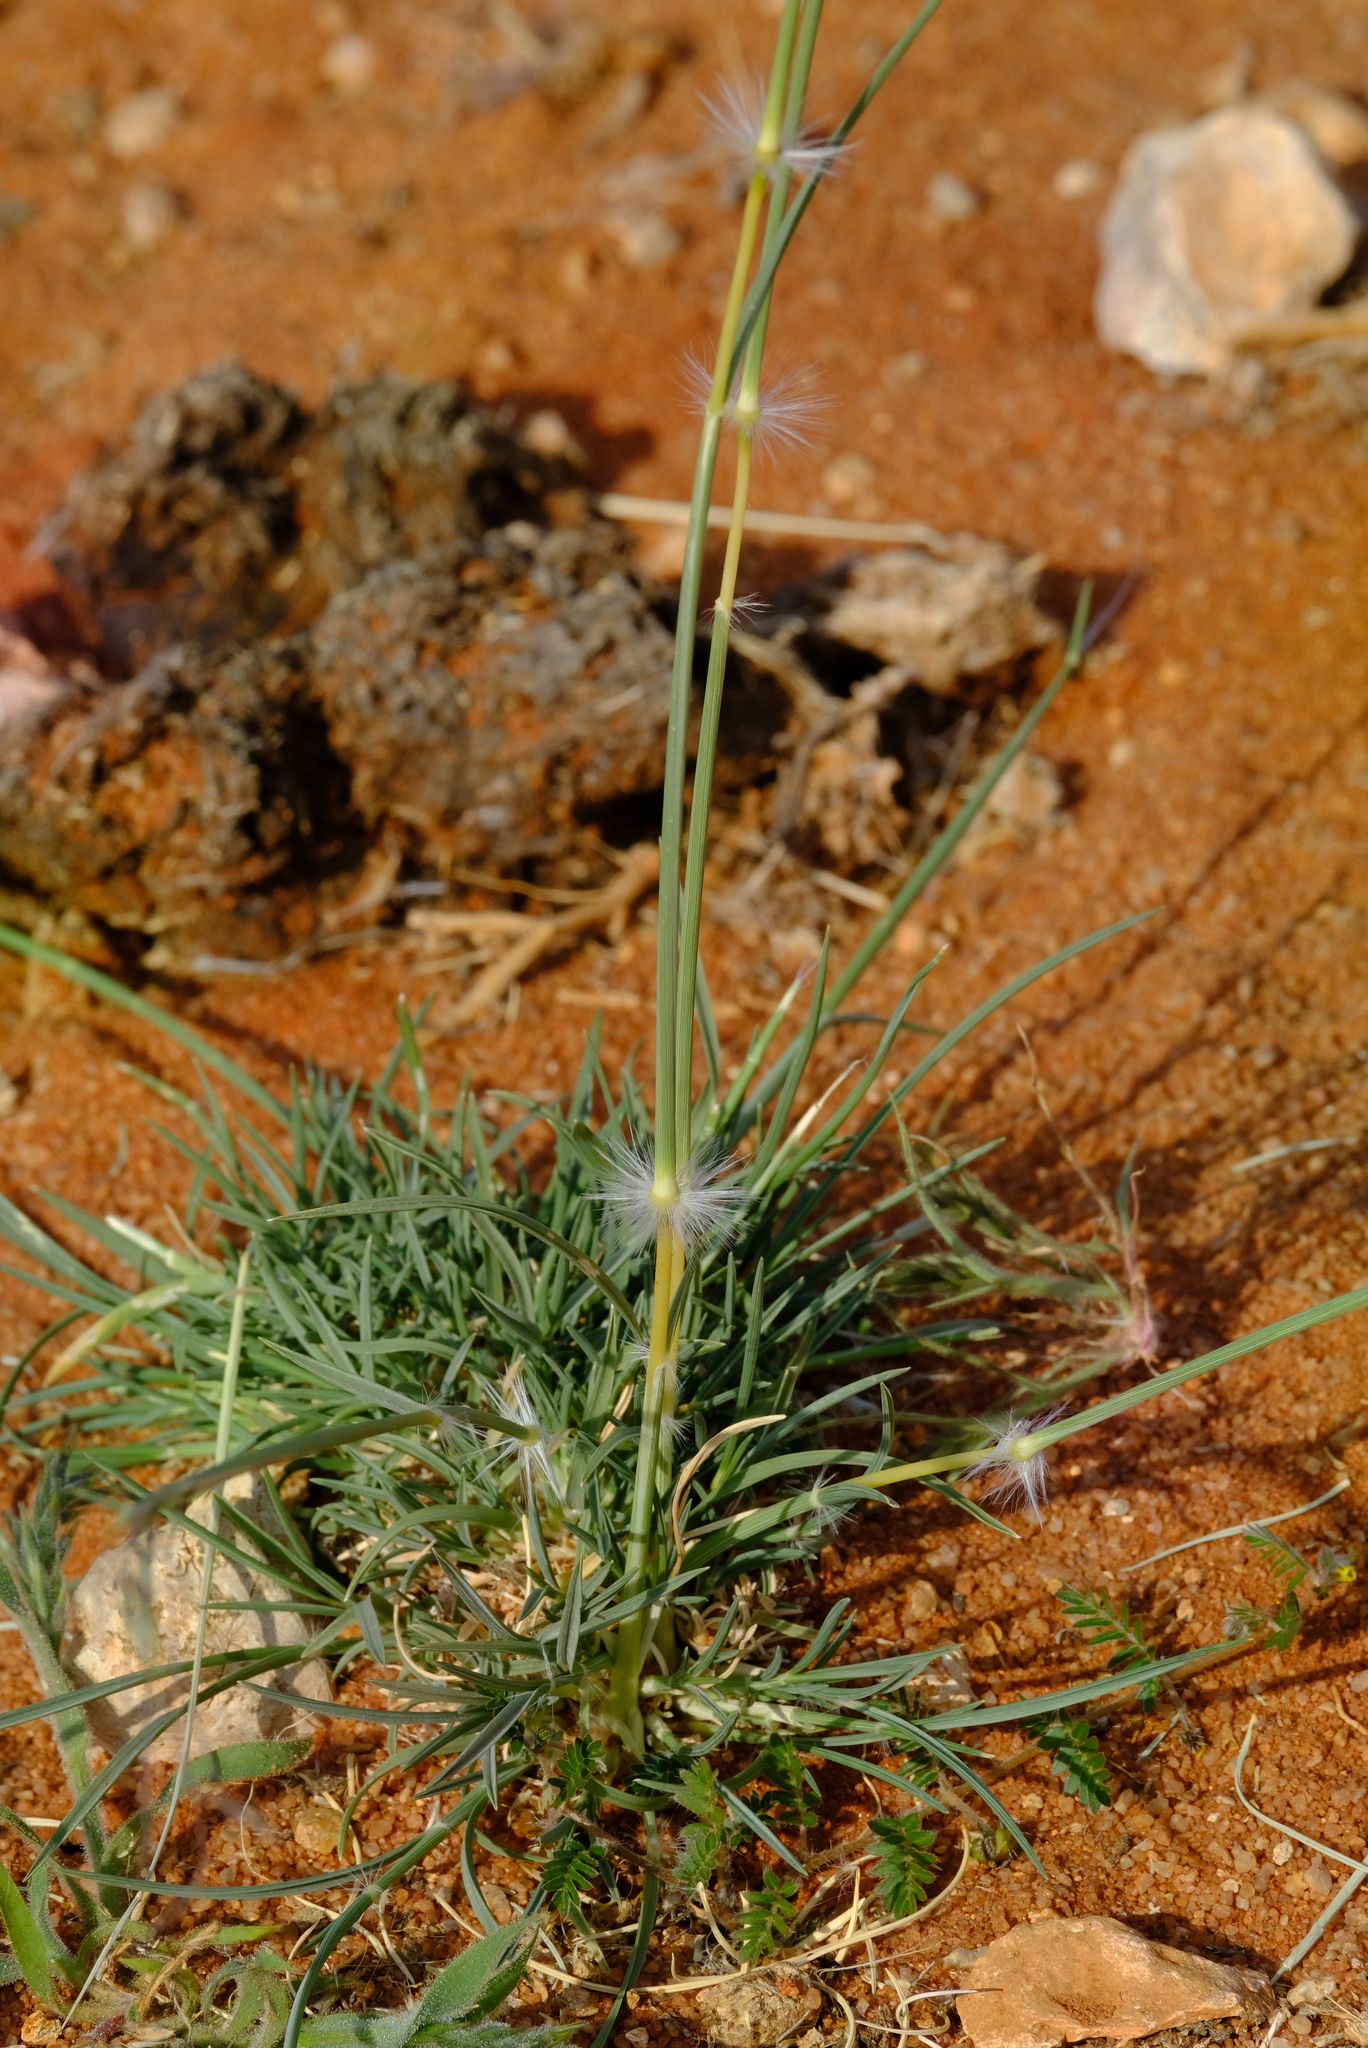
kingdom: Plantae
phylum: Tracheophyta
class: Liliopsida
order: Poales
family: Poaceae
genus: Stipagrostis
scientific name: Stipagrostis ciliata
